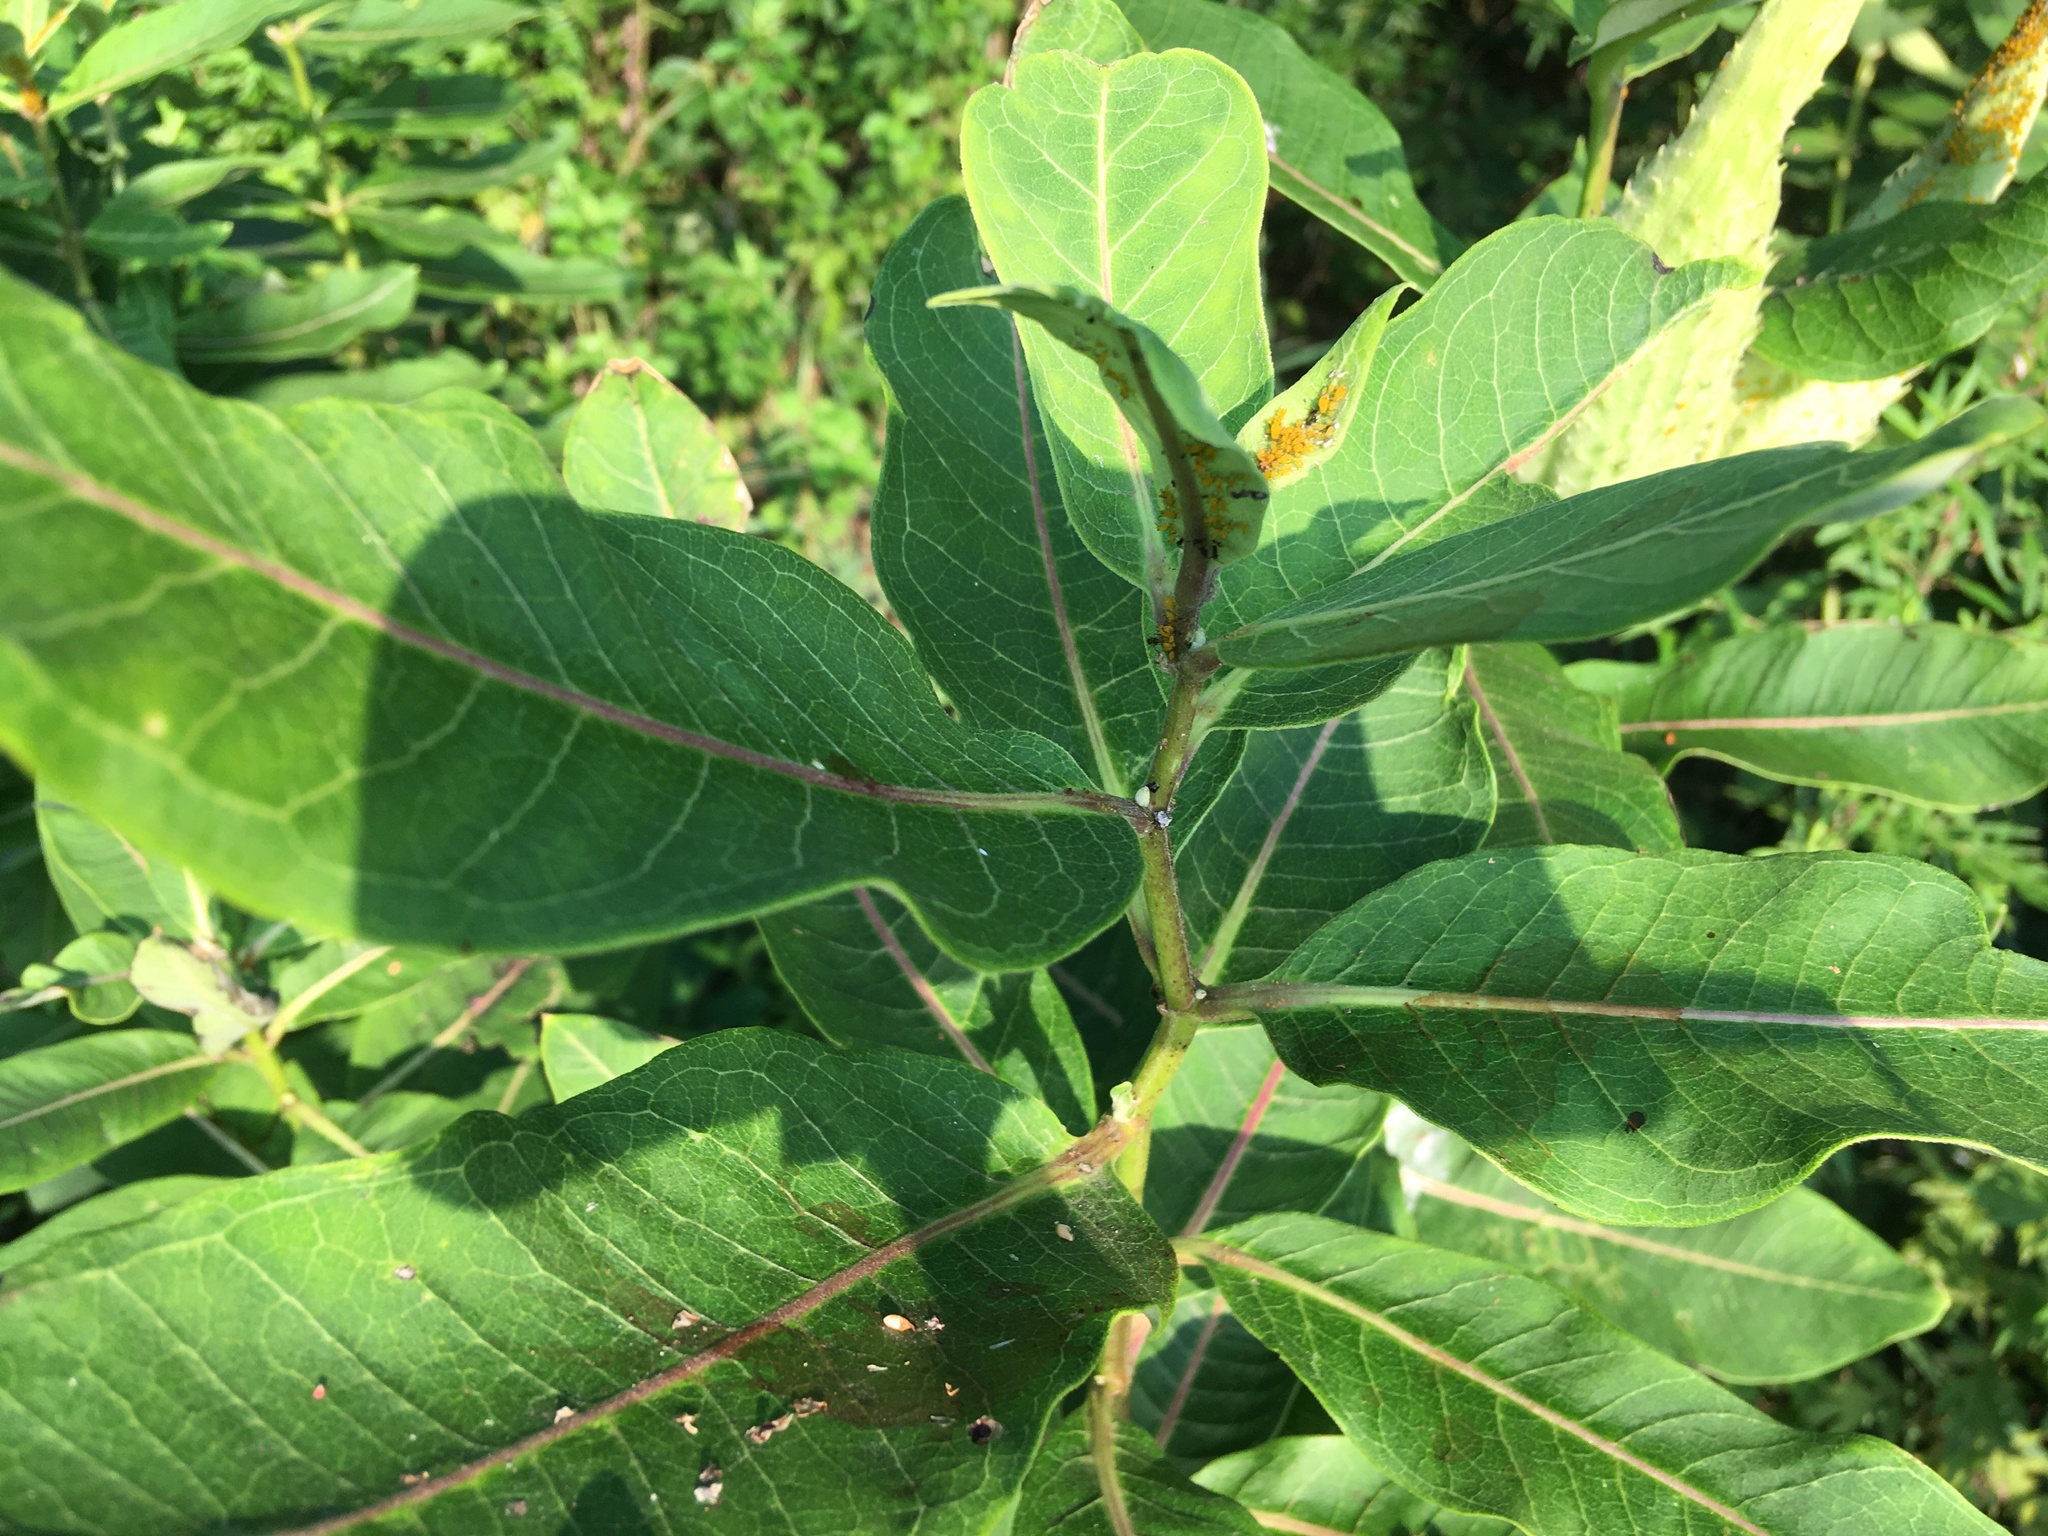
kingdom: Plantae
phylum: Tracheophyta
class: Magnoliopsida
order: Gentianales
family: Apocynaceae
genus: Asclepias
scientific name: Asclepias syriaca
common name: Common milkweed
